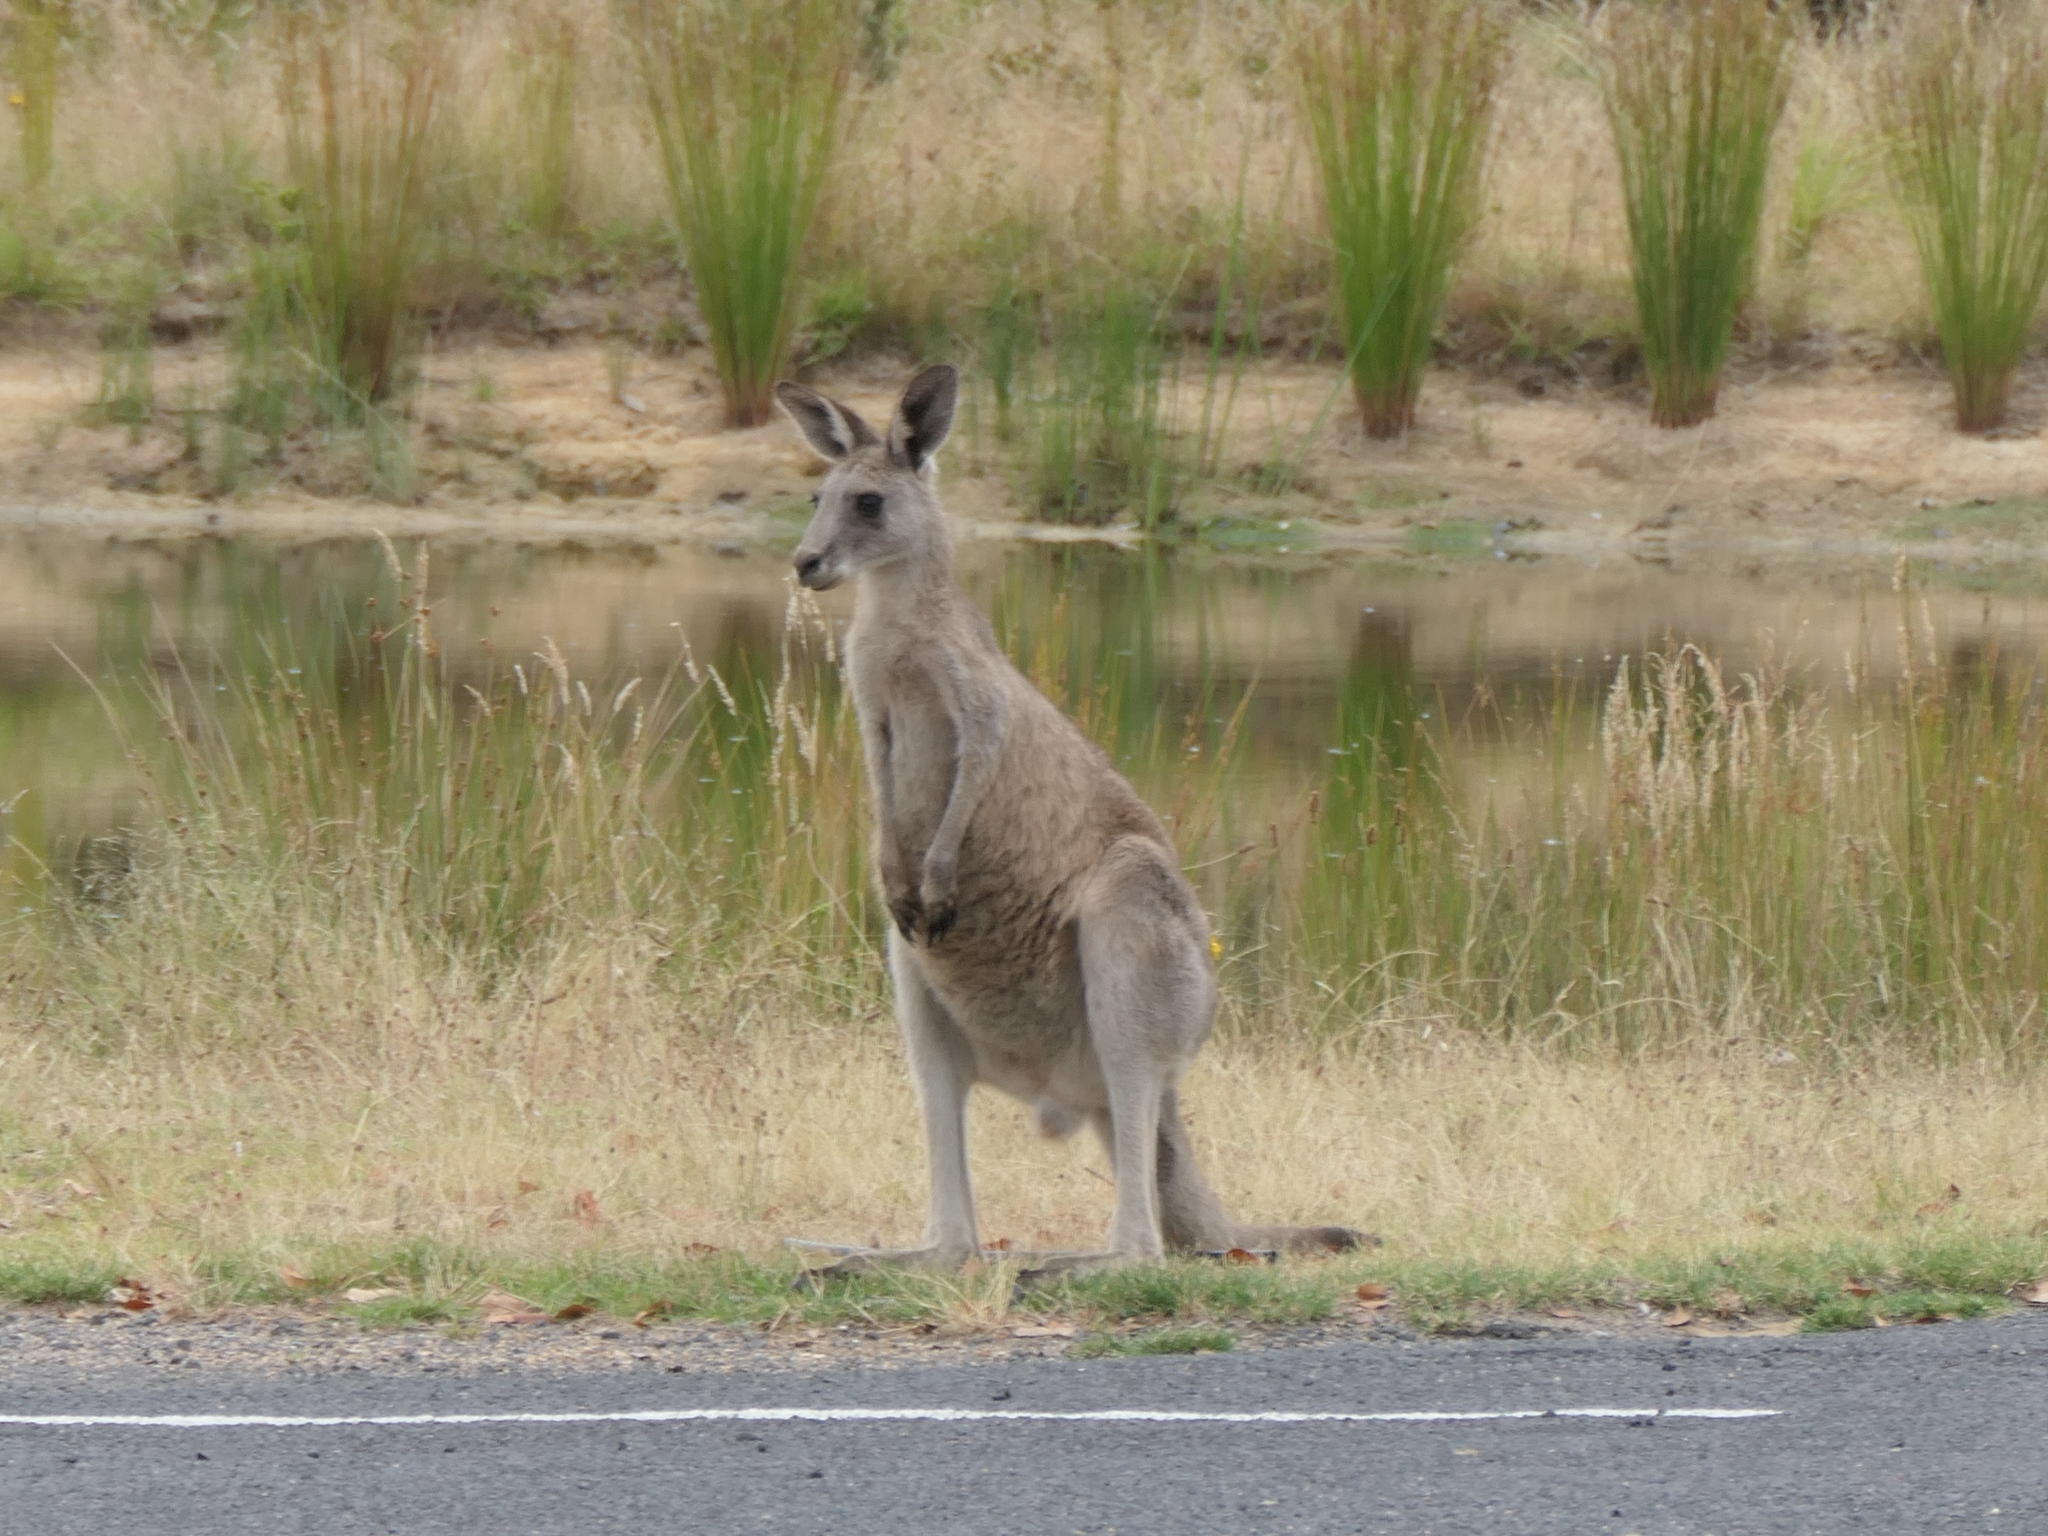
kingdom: Animalia
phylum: Chordata
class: Mammalia
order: Diprotodontia
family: Macropodidae
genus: Macropus
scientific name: Macropus giganteus
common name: Eastern grey kangaroo
